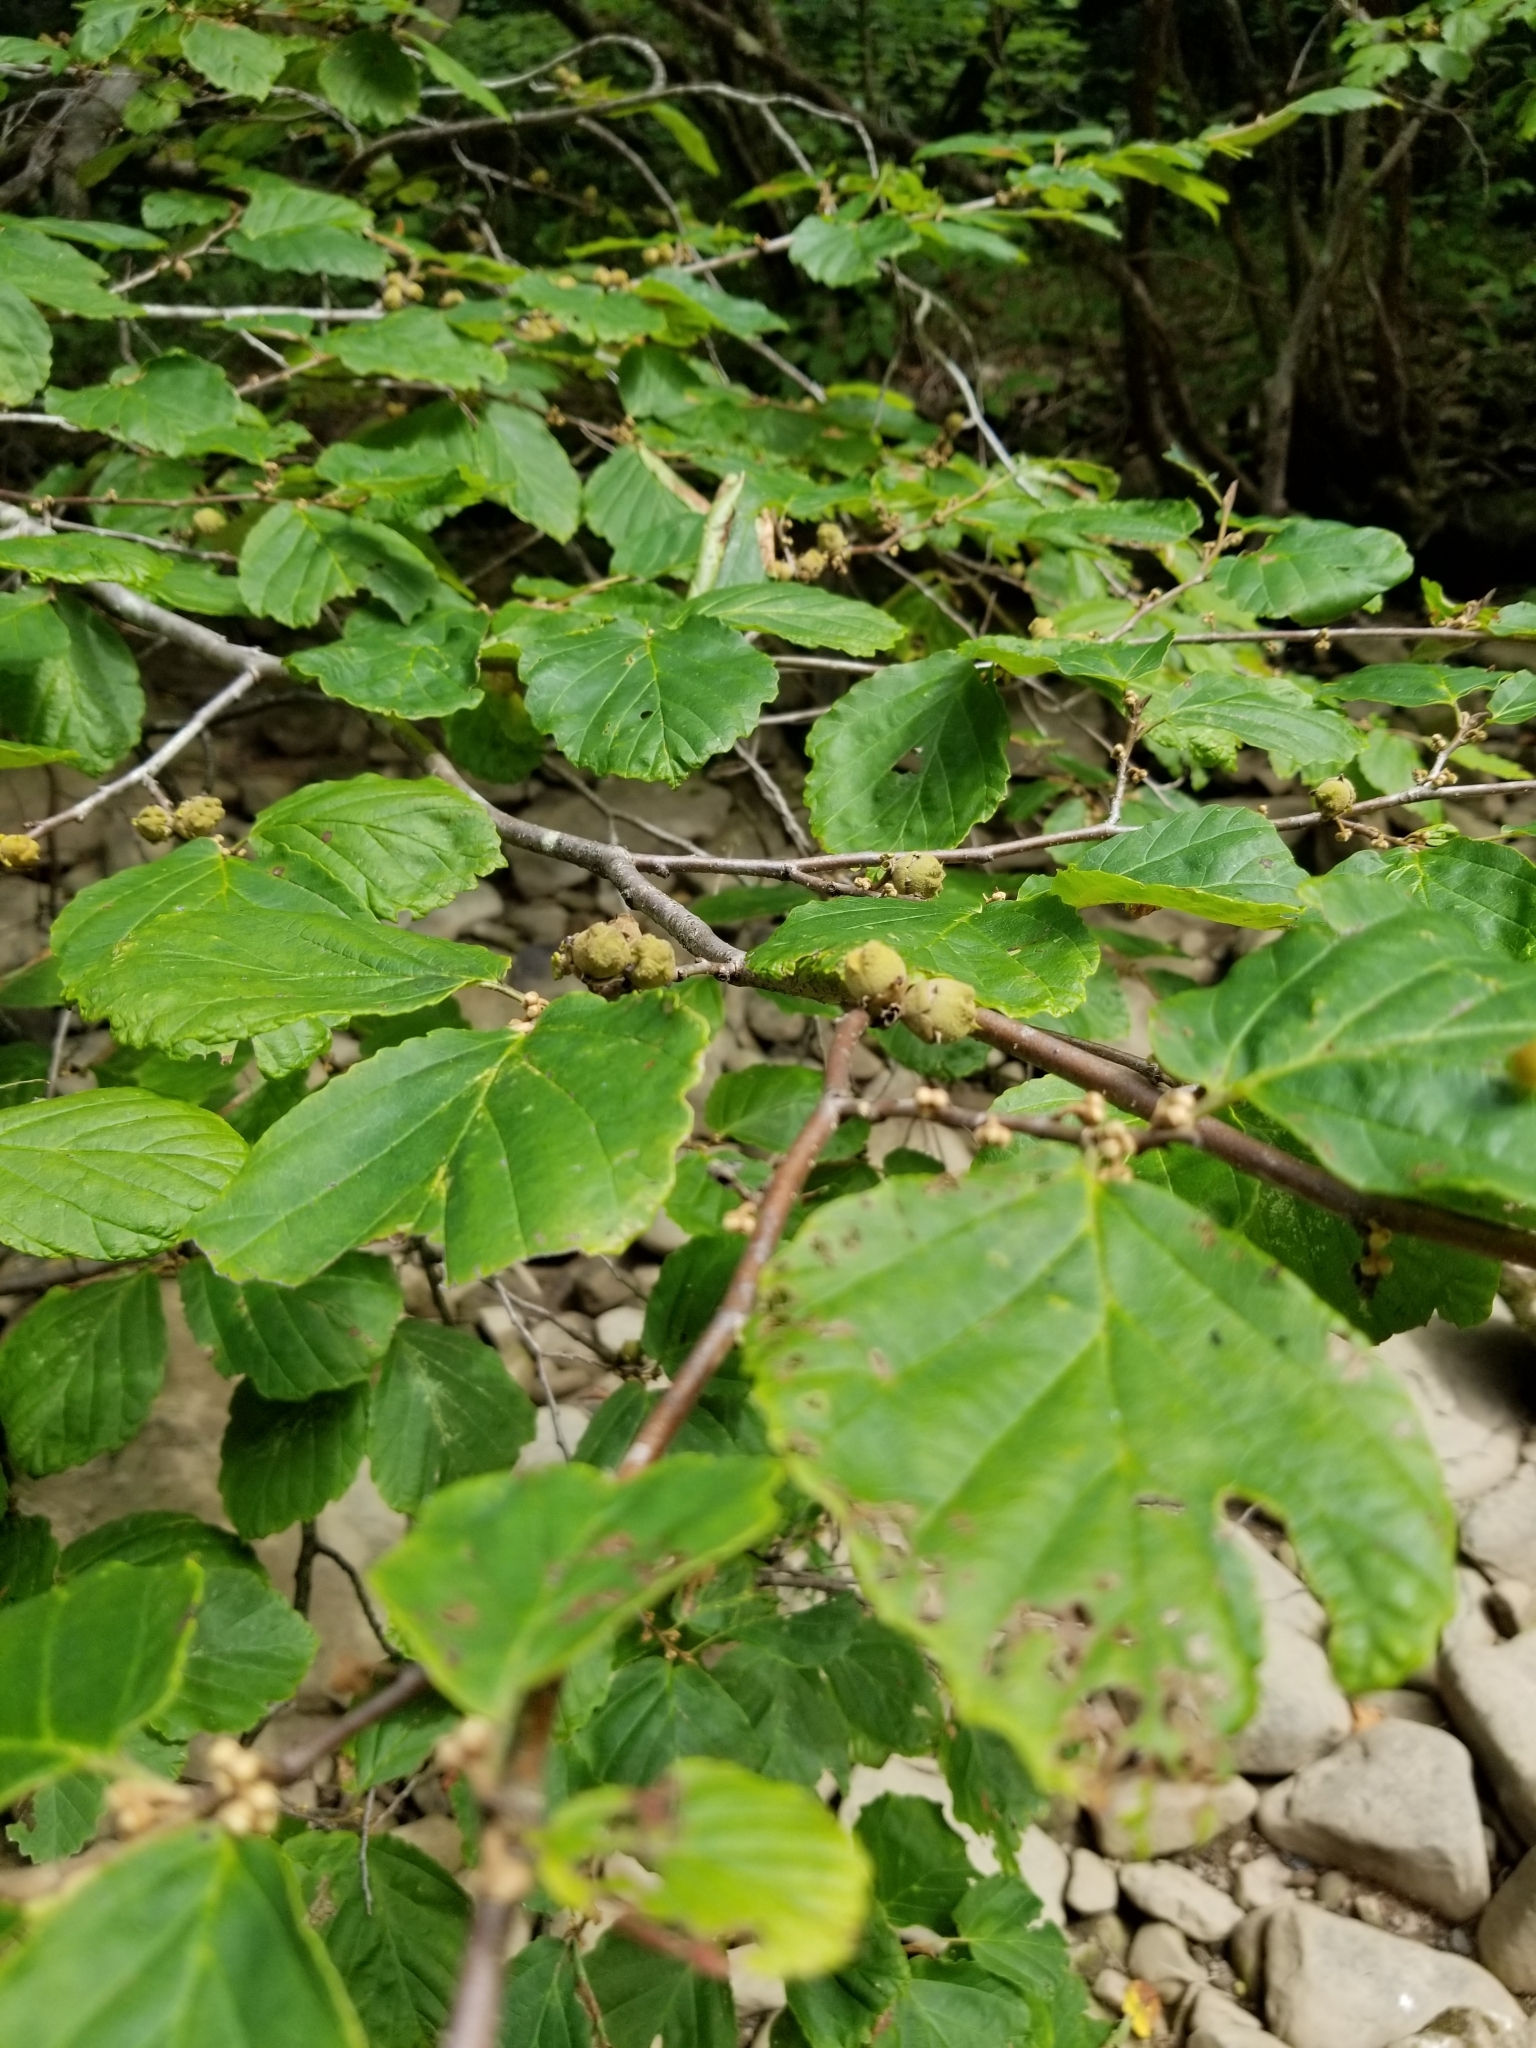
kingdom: Plantae
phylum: Tracheophyta
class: Magnoliopsida
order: Saxifragales
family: Hamamelidaceae
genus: Hamamelis
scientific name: Hamamelis virginiana
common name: Witch-hazel
